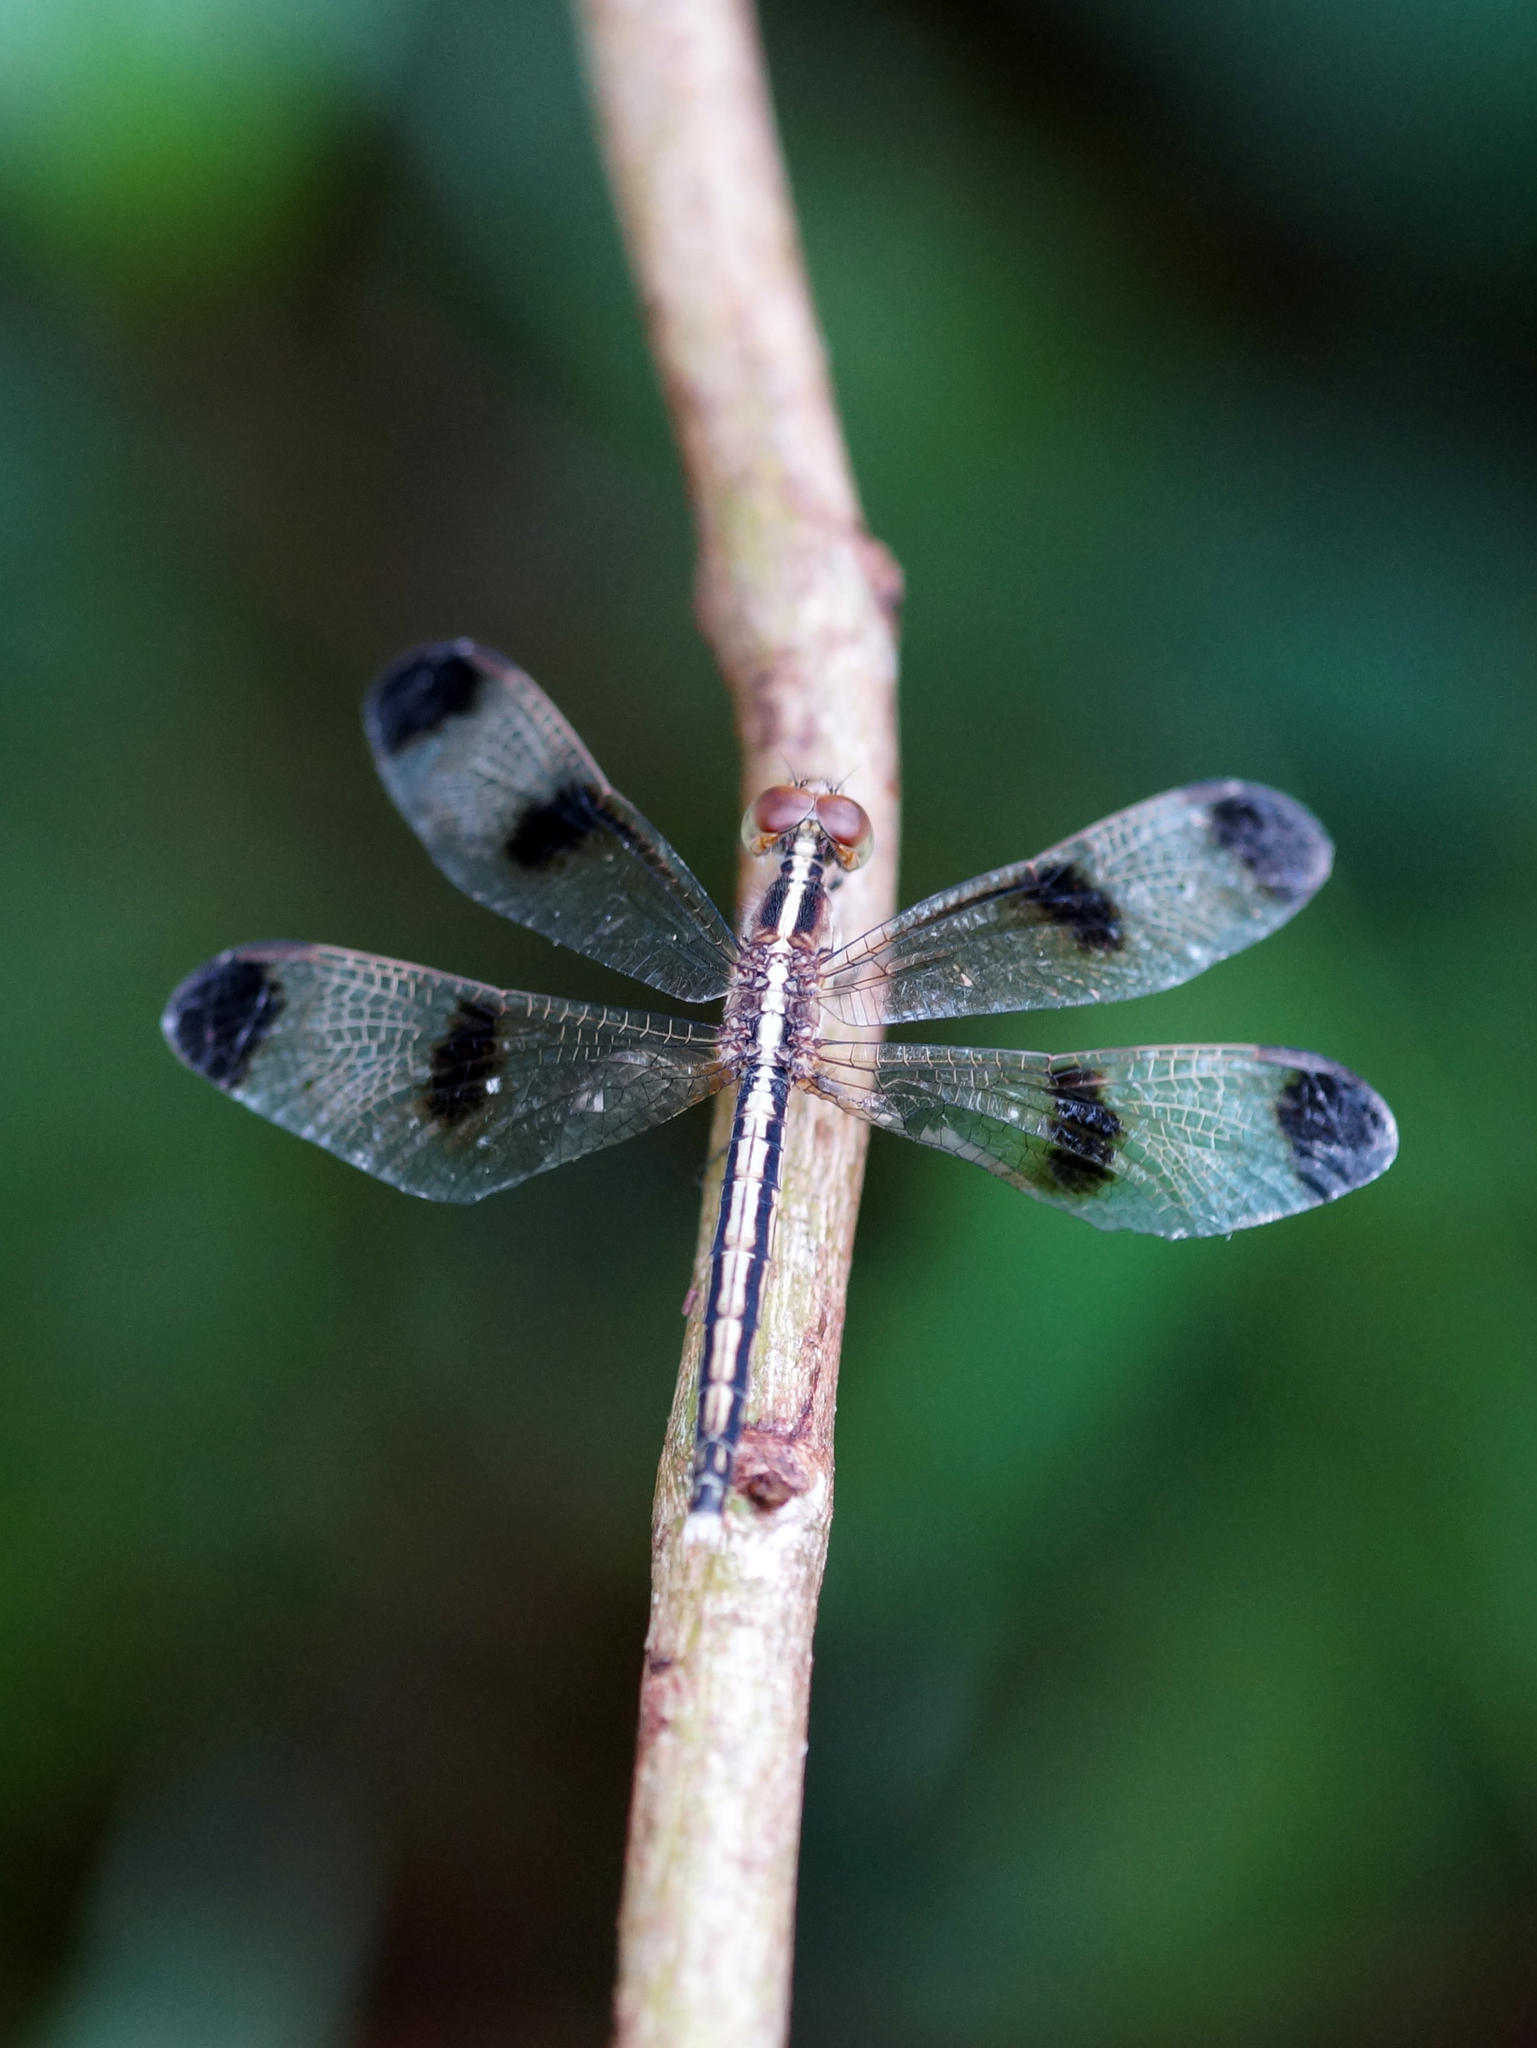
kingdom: Animalia
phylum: Arthropoda
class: Insecta
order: Odonata
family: Libellulidae
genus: Neurothemis
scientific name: Neurothemis tullia
